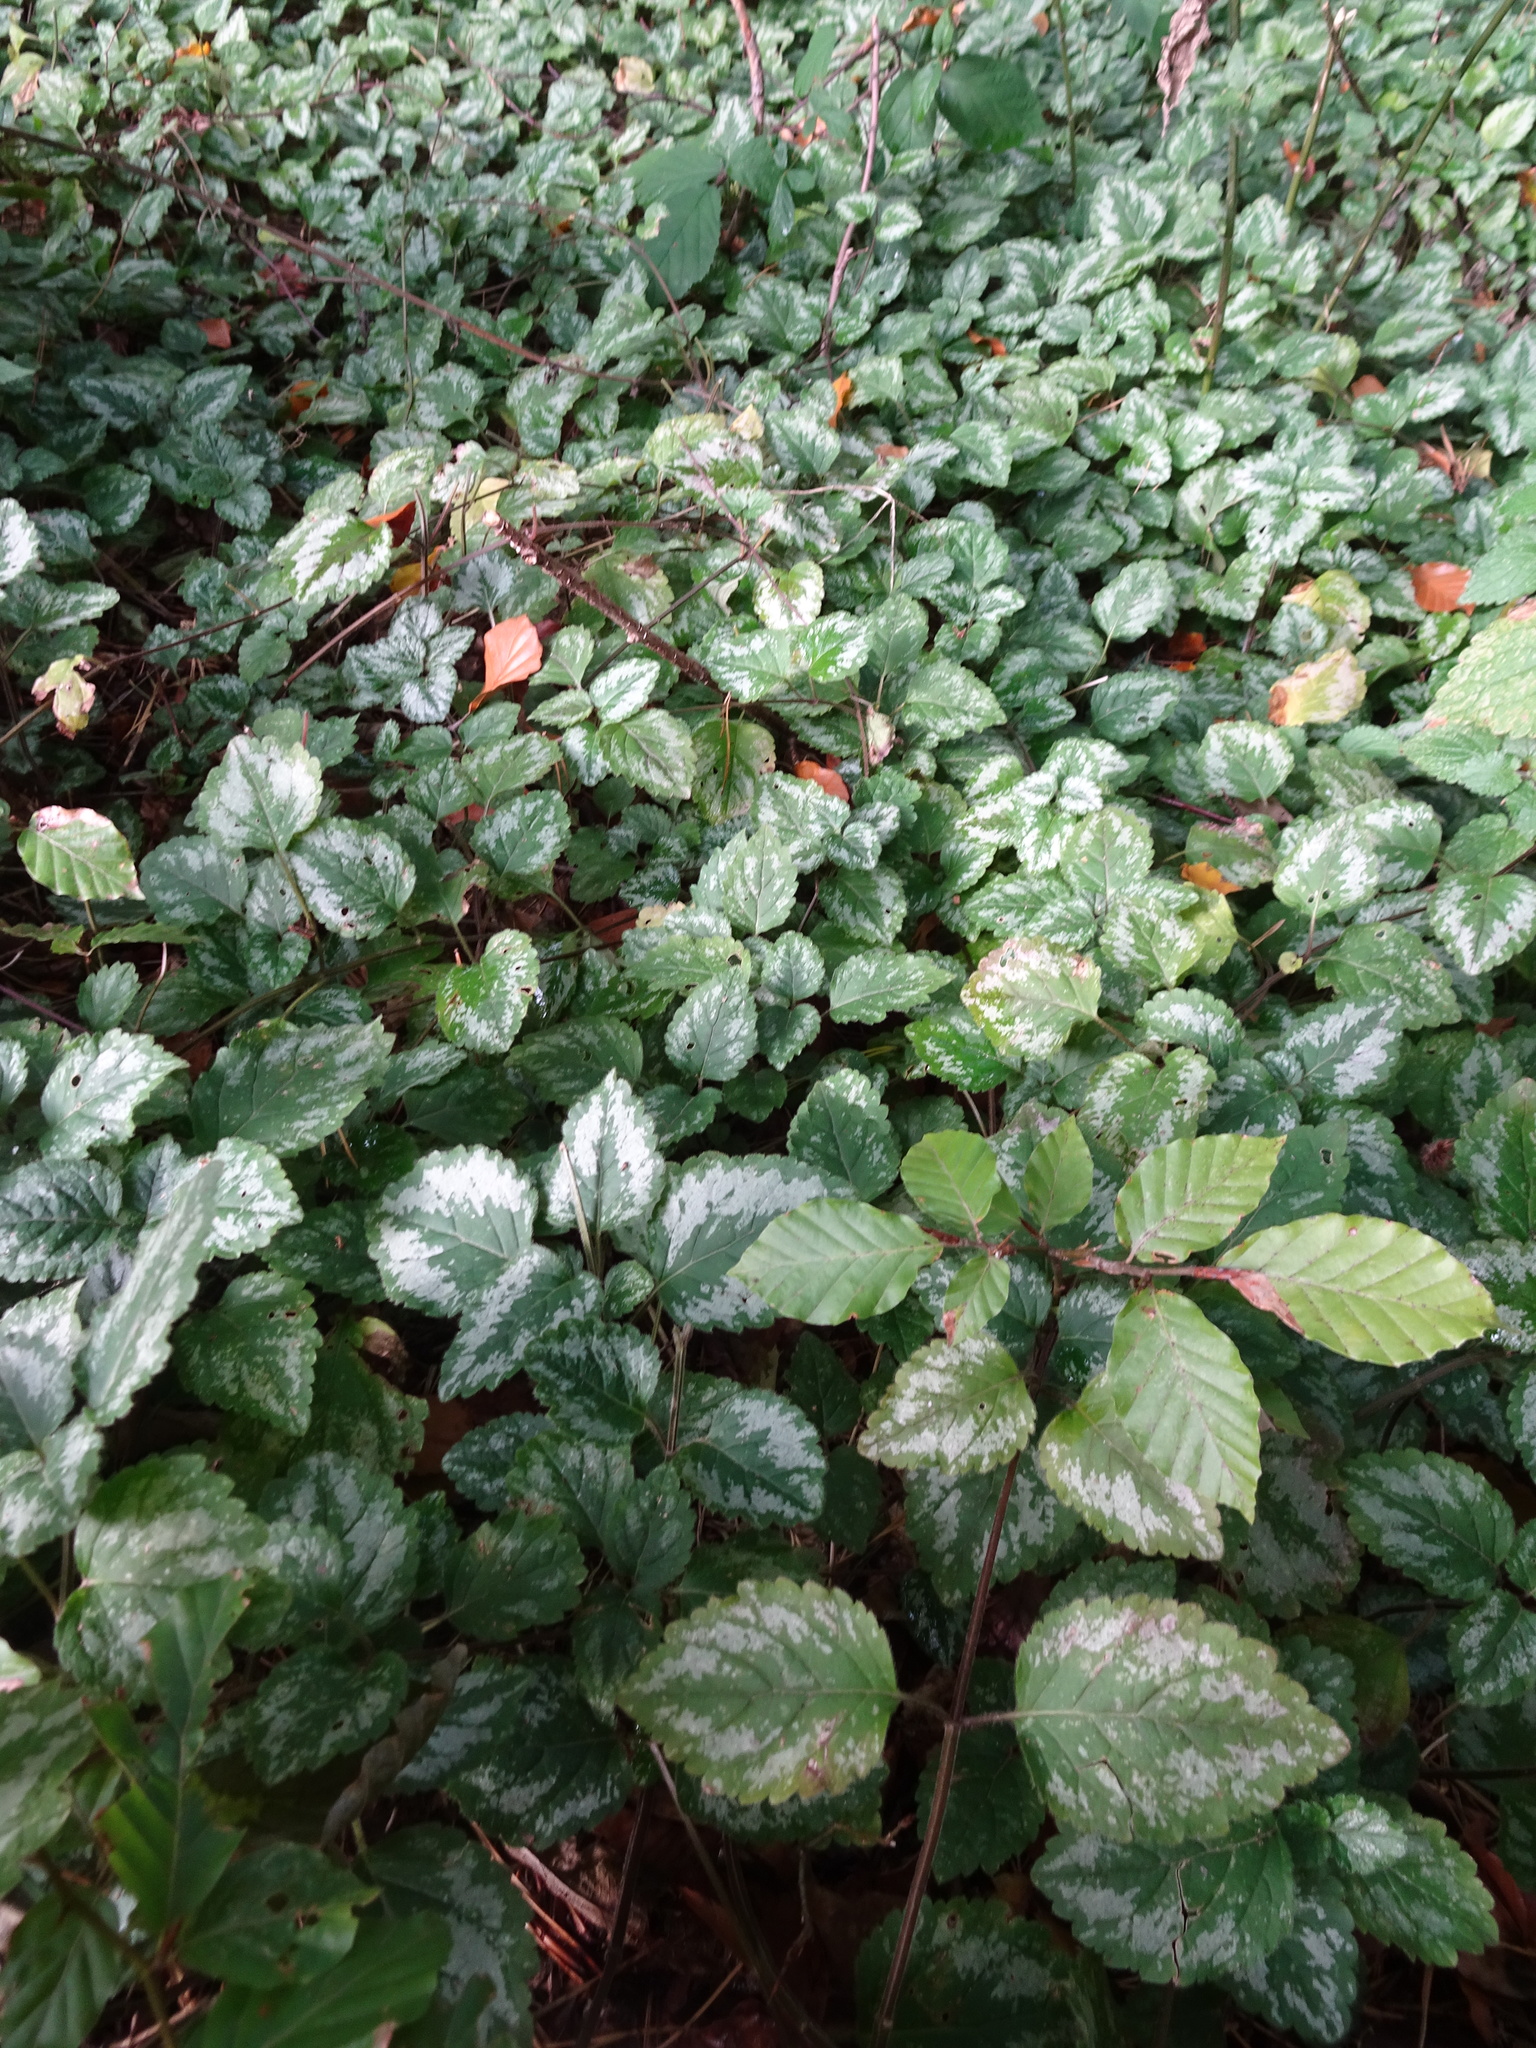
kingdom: Plantae
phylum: Tracheophyta
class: Magnoliopsida
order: Lamiales
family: Lamiaceae
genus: Lamium
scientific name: Lamium galeobdolon
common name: Yellow archangel
